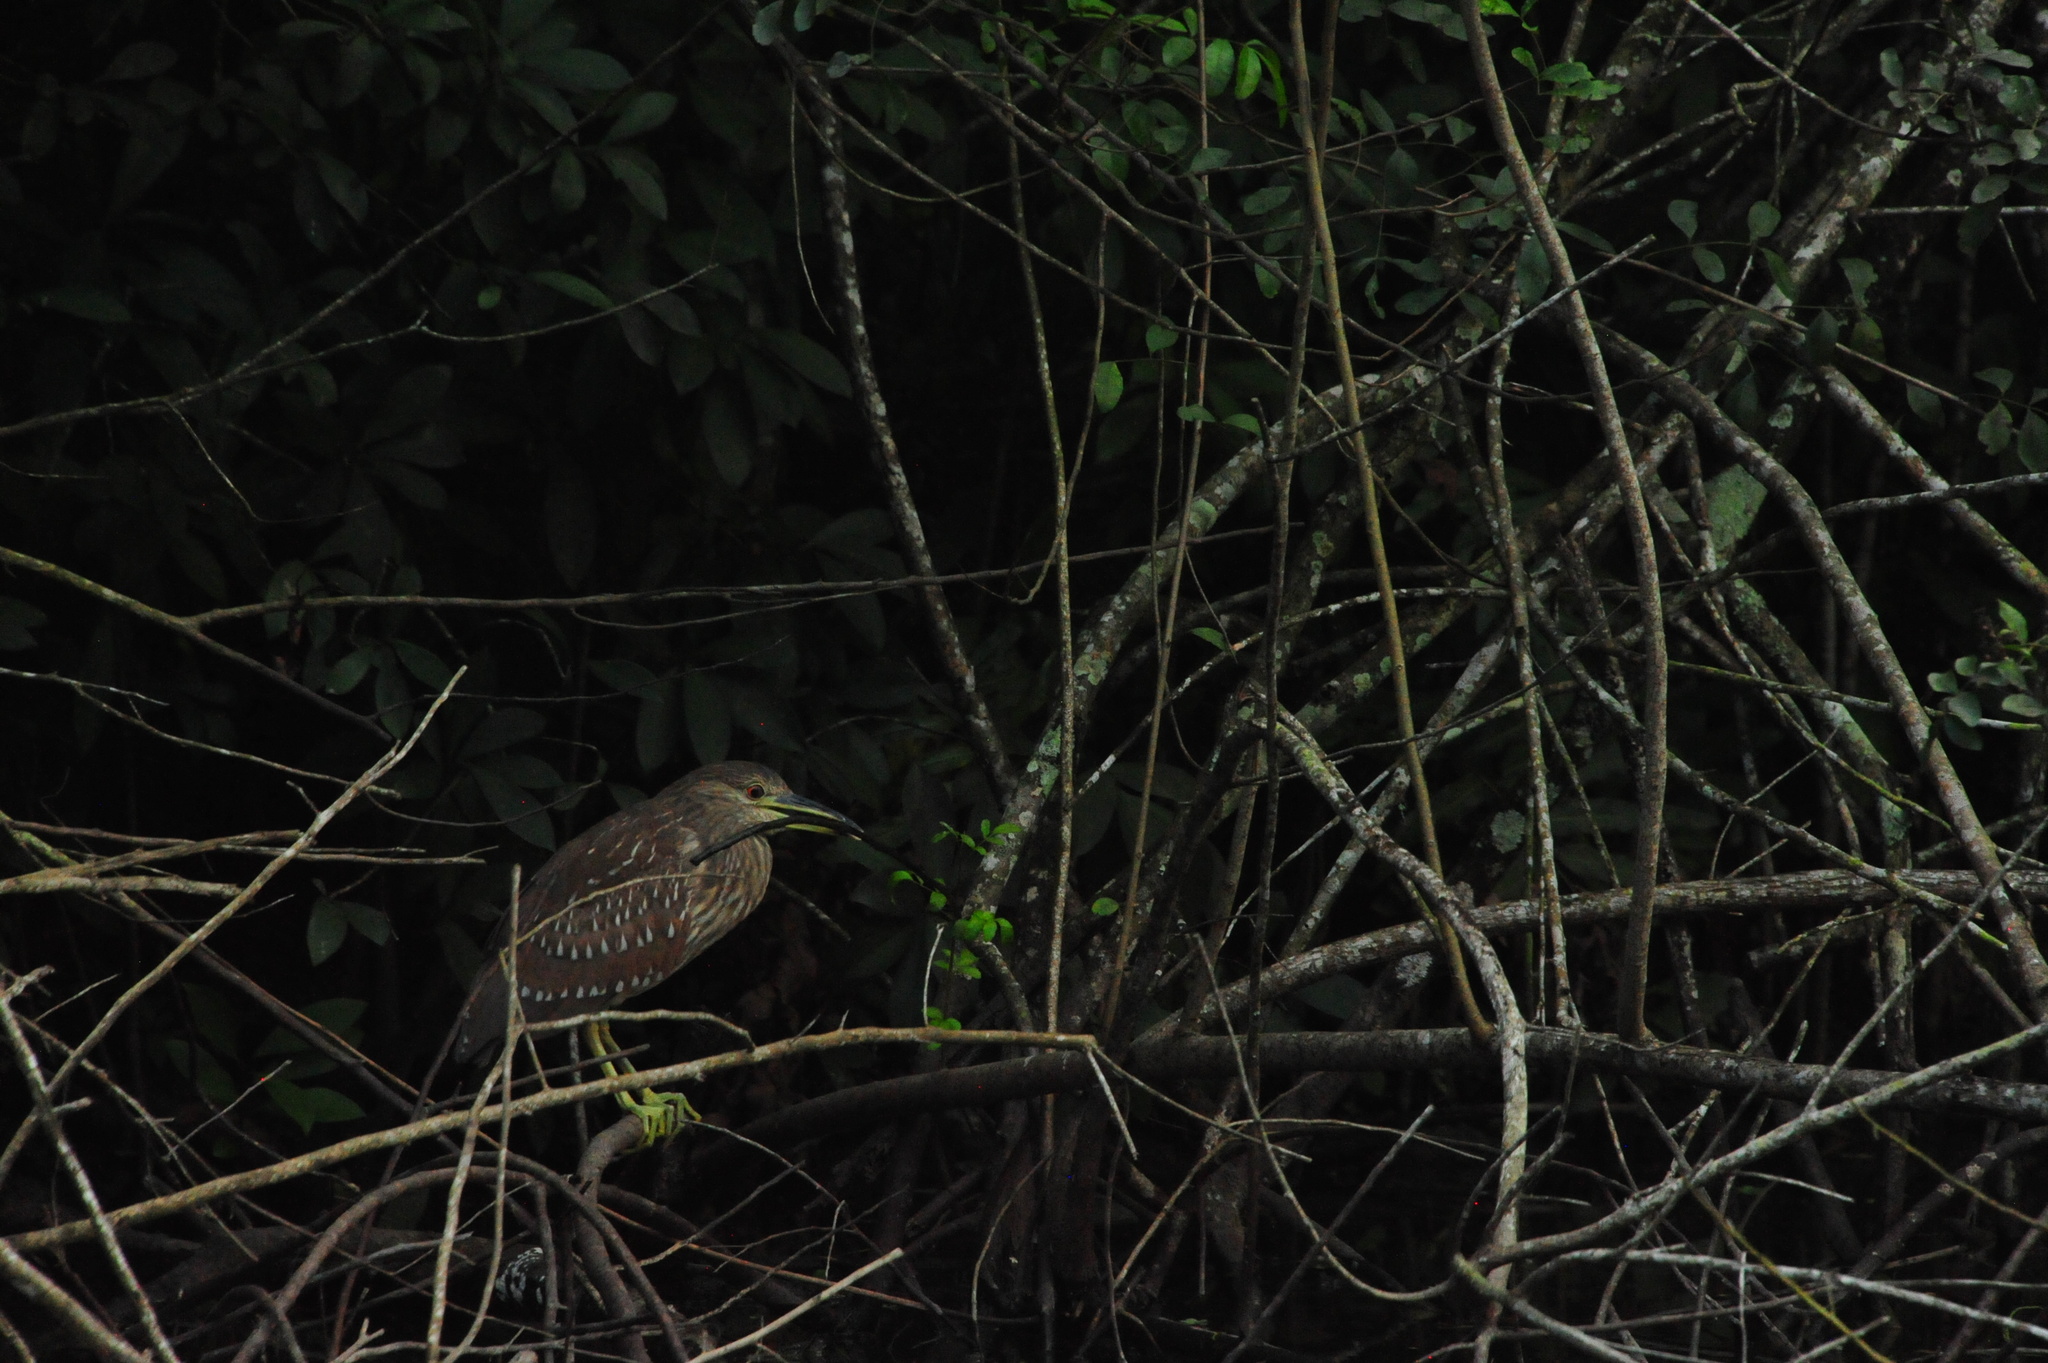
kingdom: Animalia
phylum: Chordata
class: Aves
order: Pelecaniformes
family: Ardeidae
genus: Nycticorax
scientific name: Nycticorax nycticorax
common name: Black-crowned night heron
